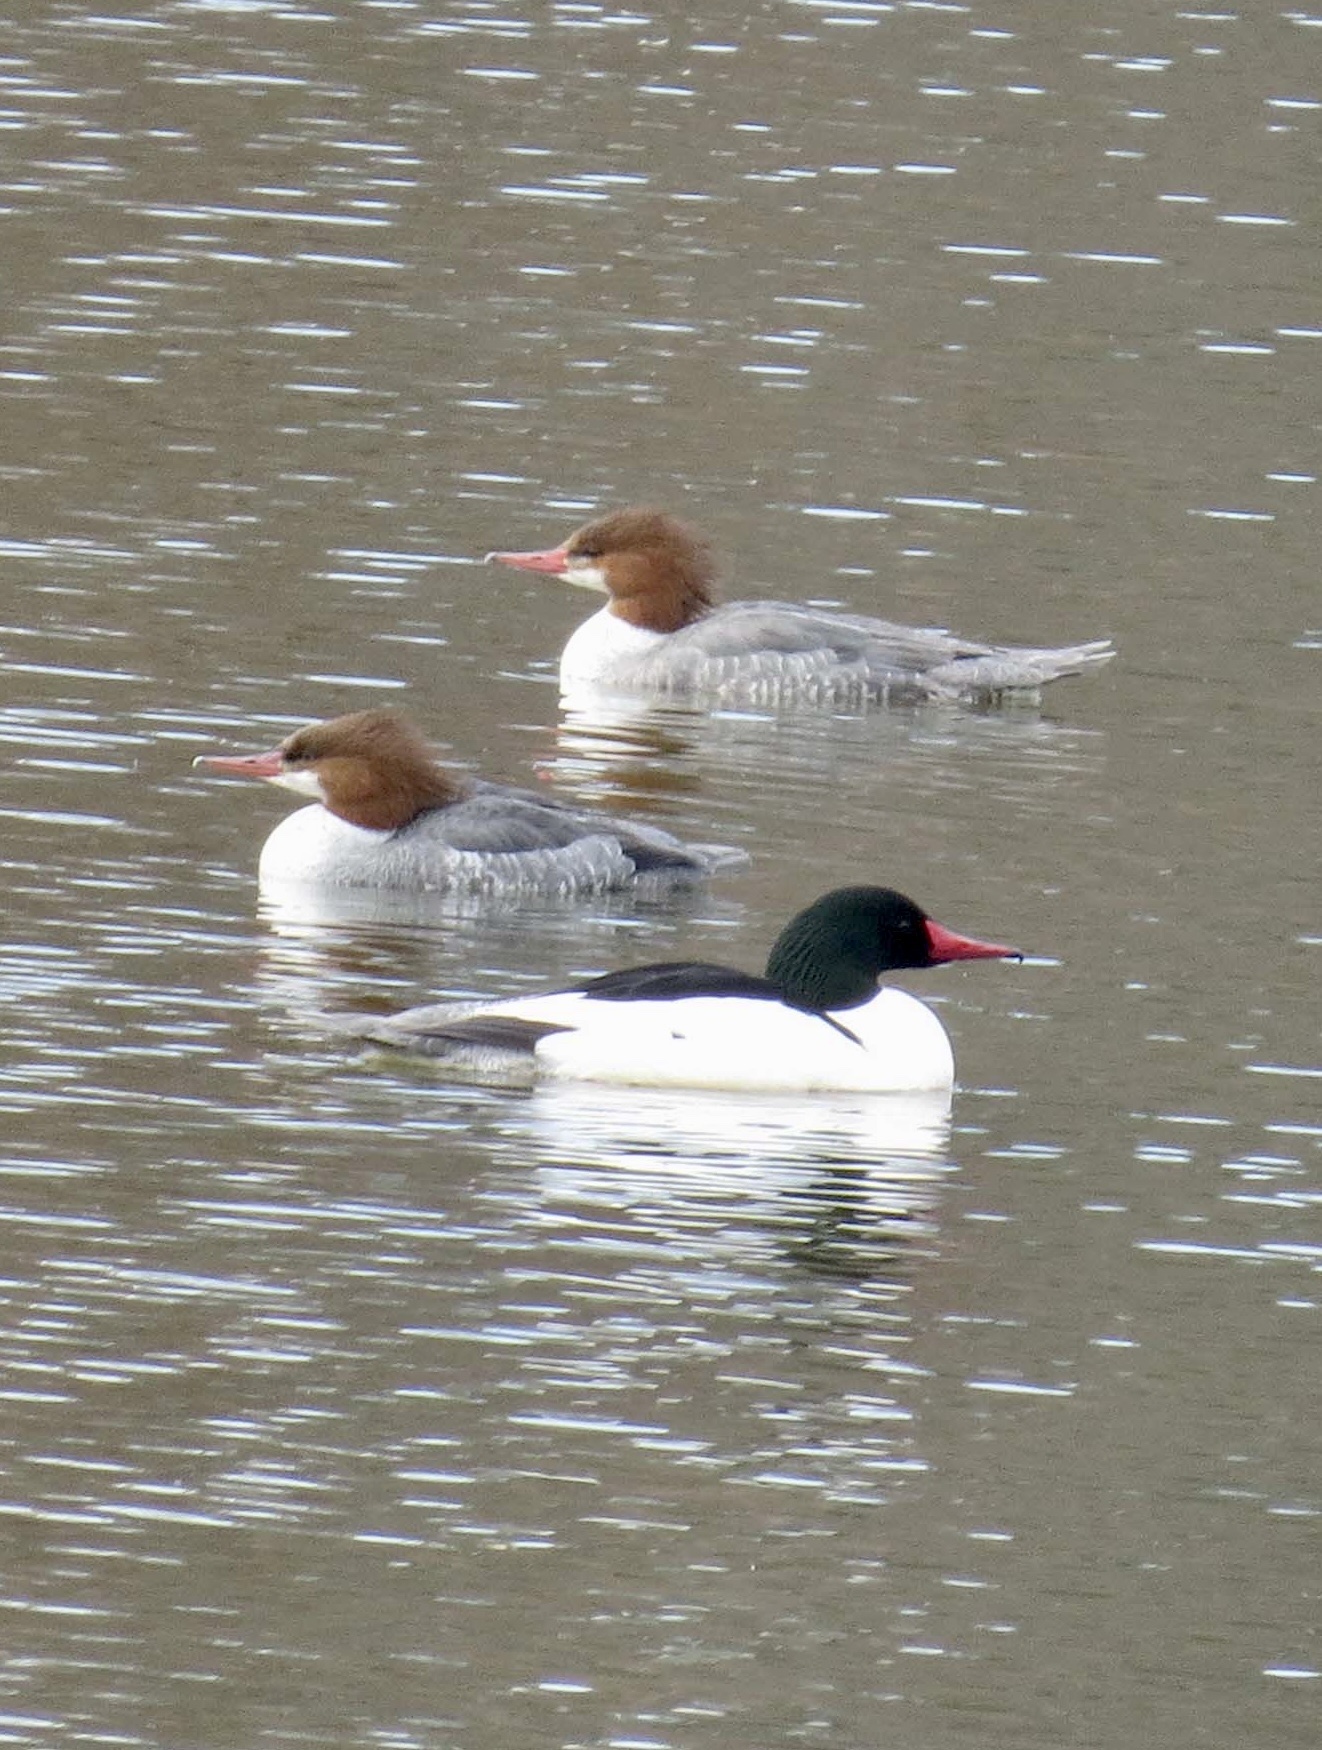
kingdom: Animalia
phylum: Chordata
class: Aves
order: Anseriformes
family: Anatidae
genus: Mergus
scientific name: Mergus merganser
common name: Common merganser
